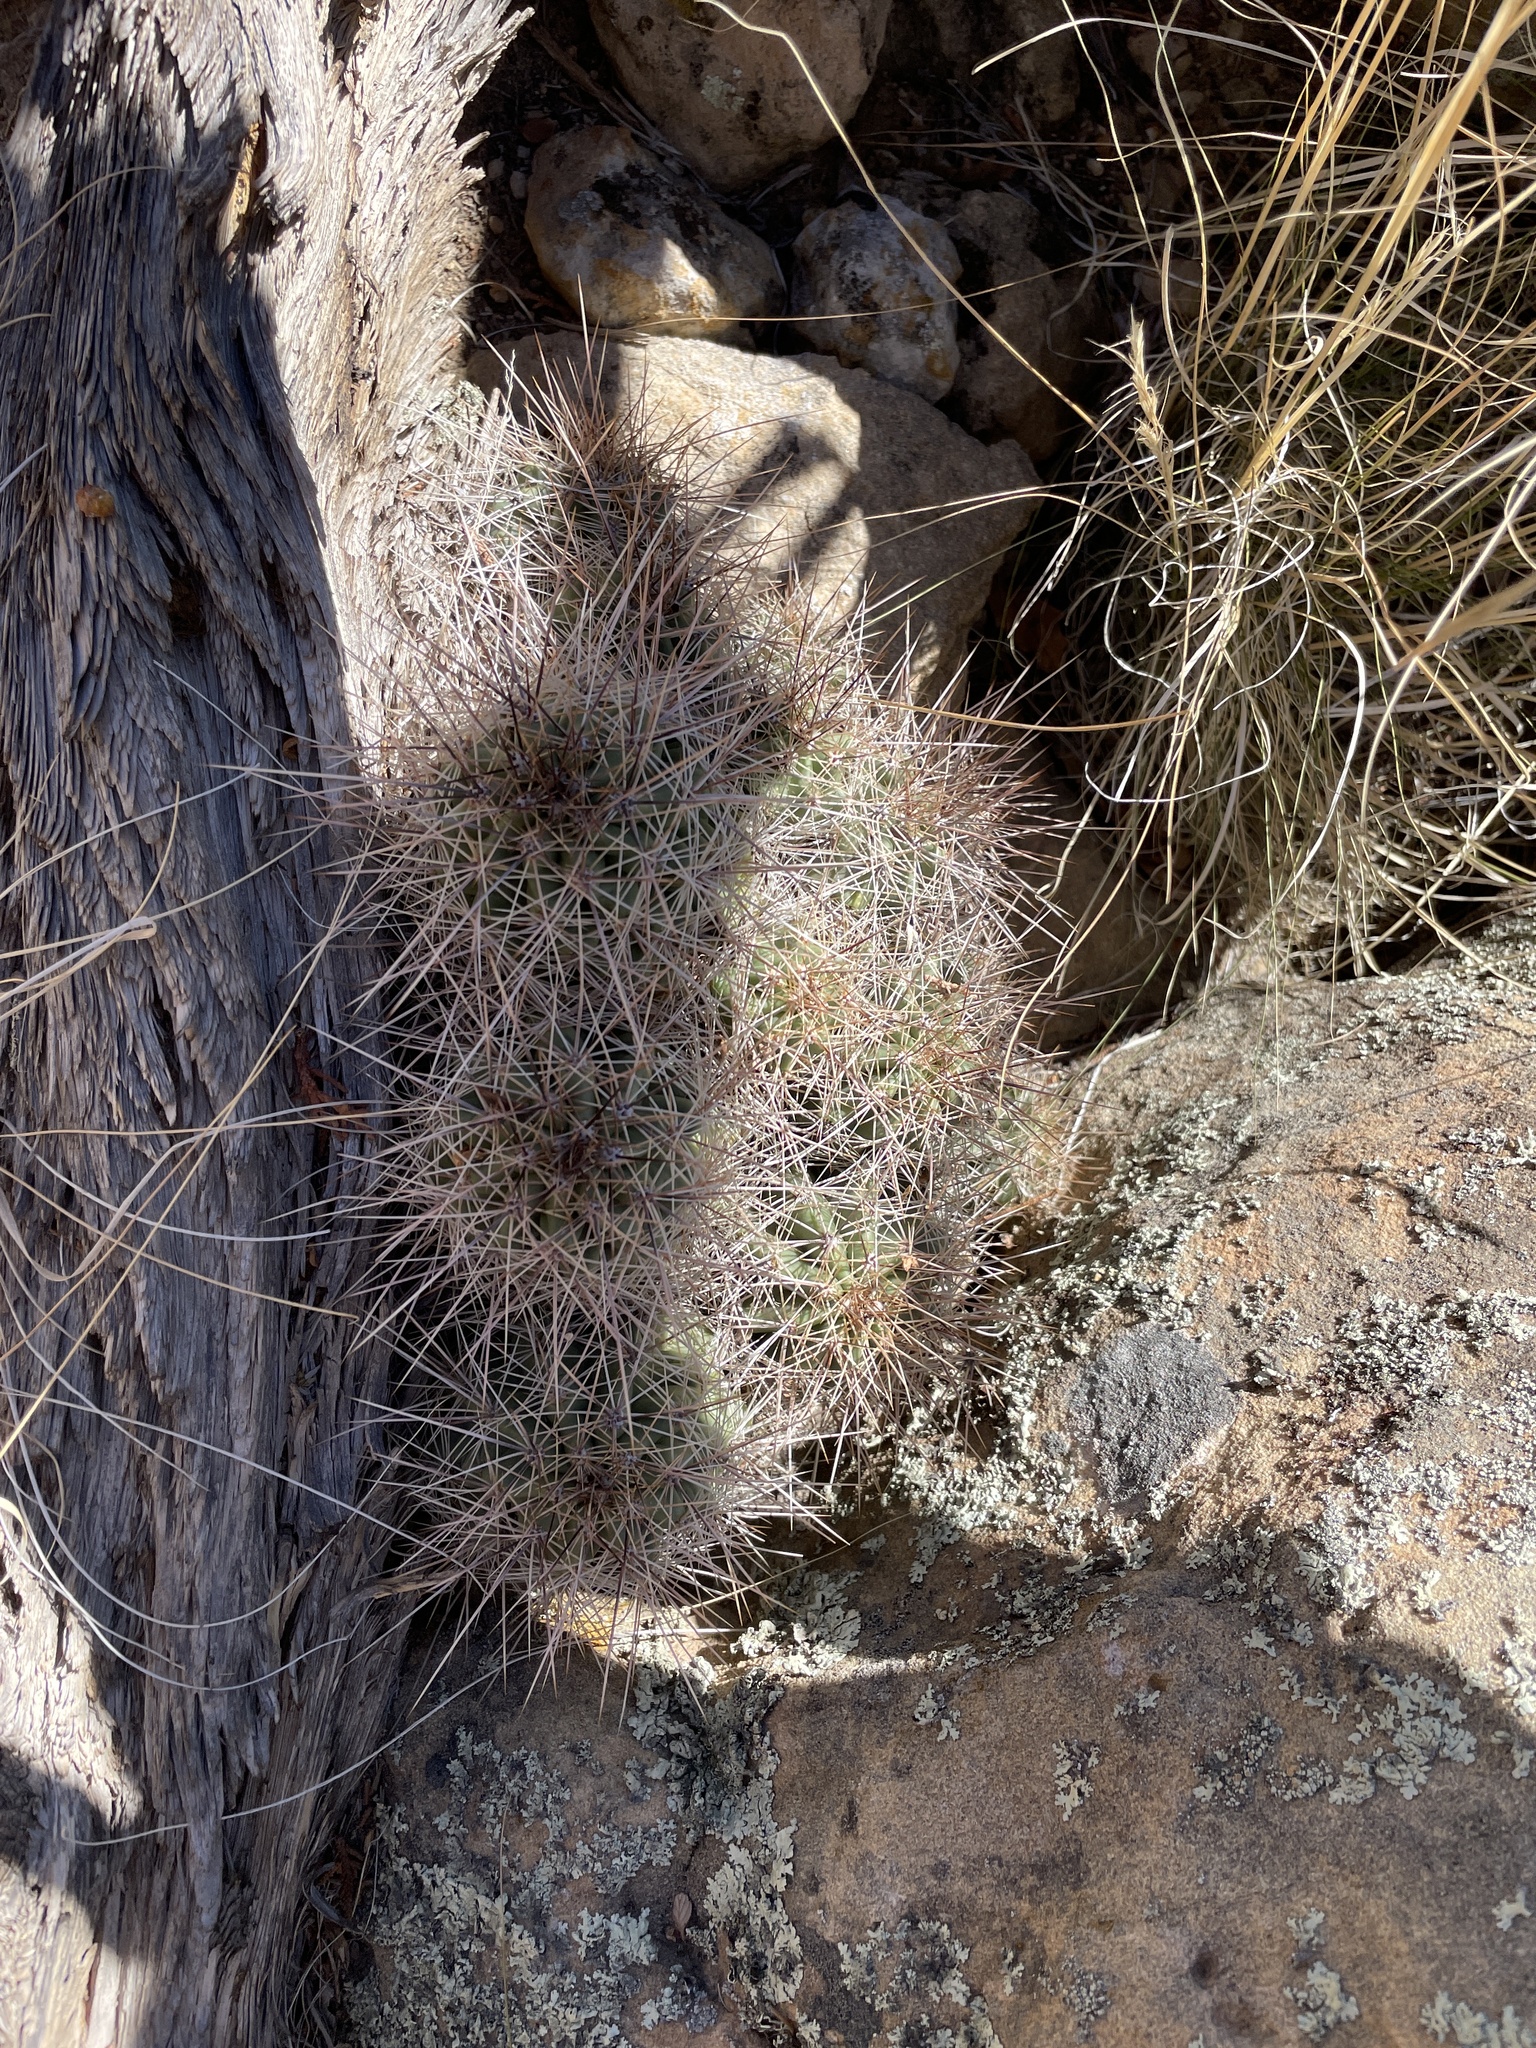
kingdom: Plantae
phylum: Tracheophyta
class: Magnoliopsida
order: Caryophyllales
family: Cactaceae
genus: Echinocereus
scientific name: Echinocereus coccineus
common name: Scarlet hedgehog cactus
